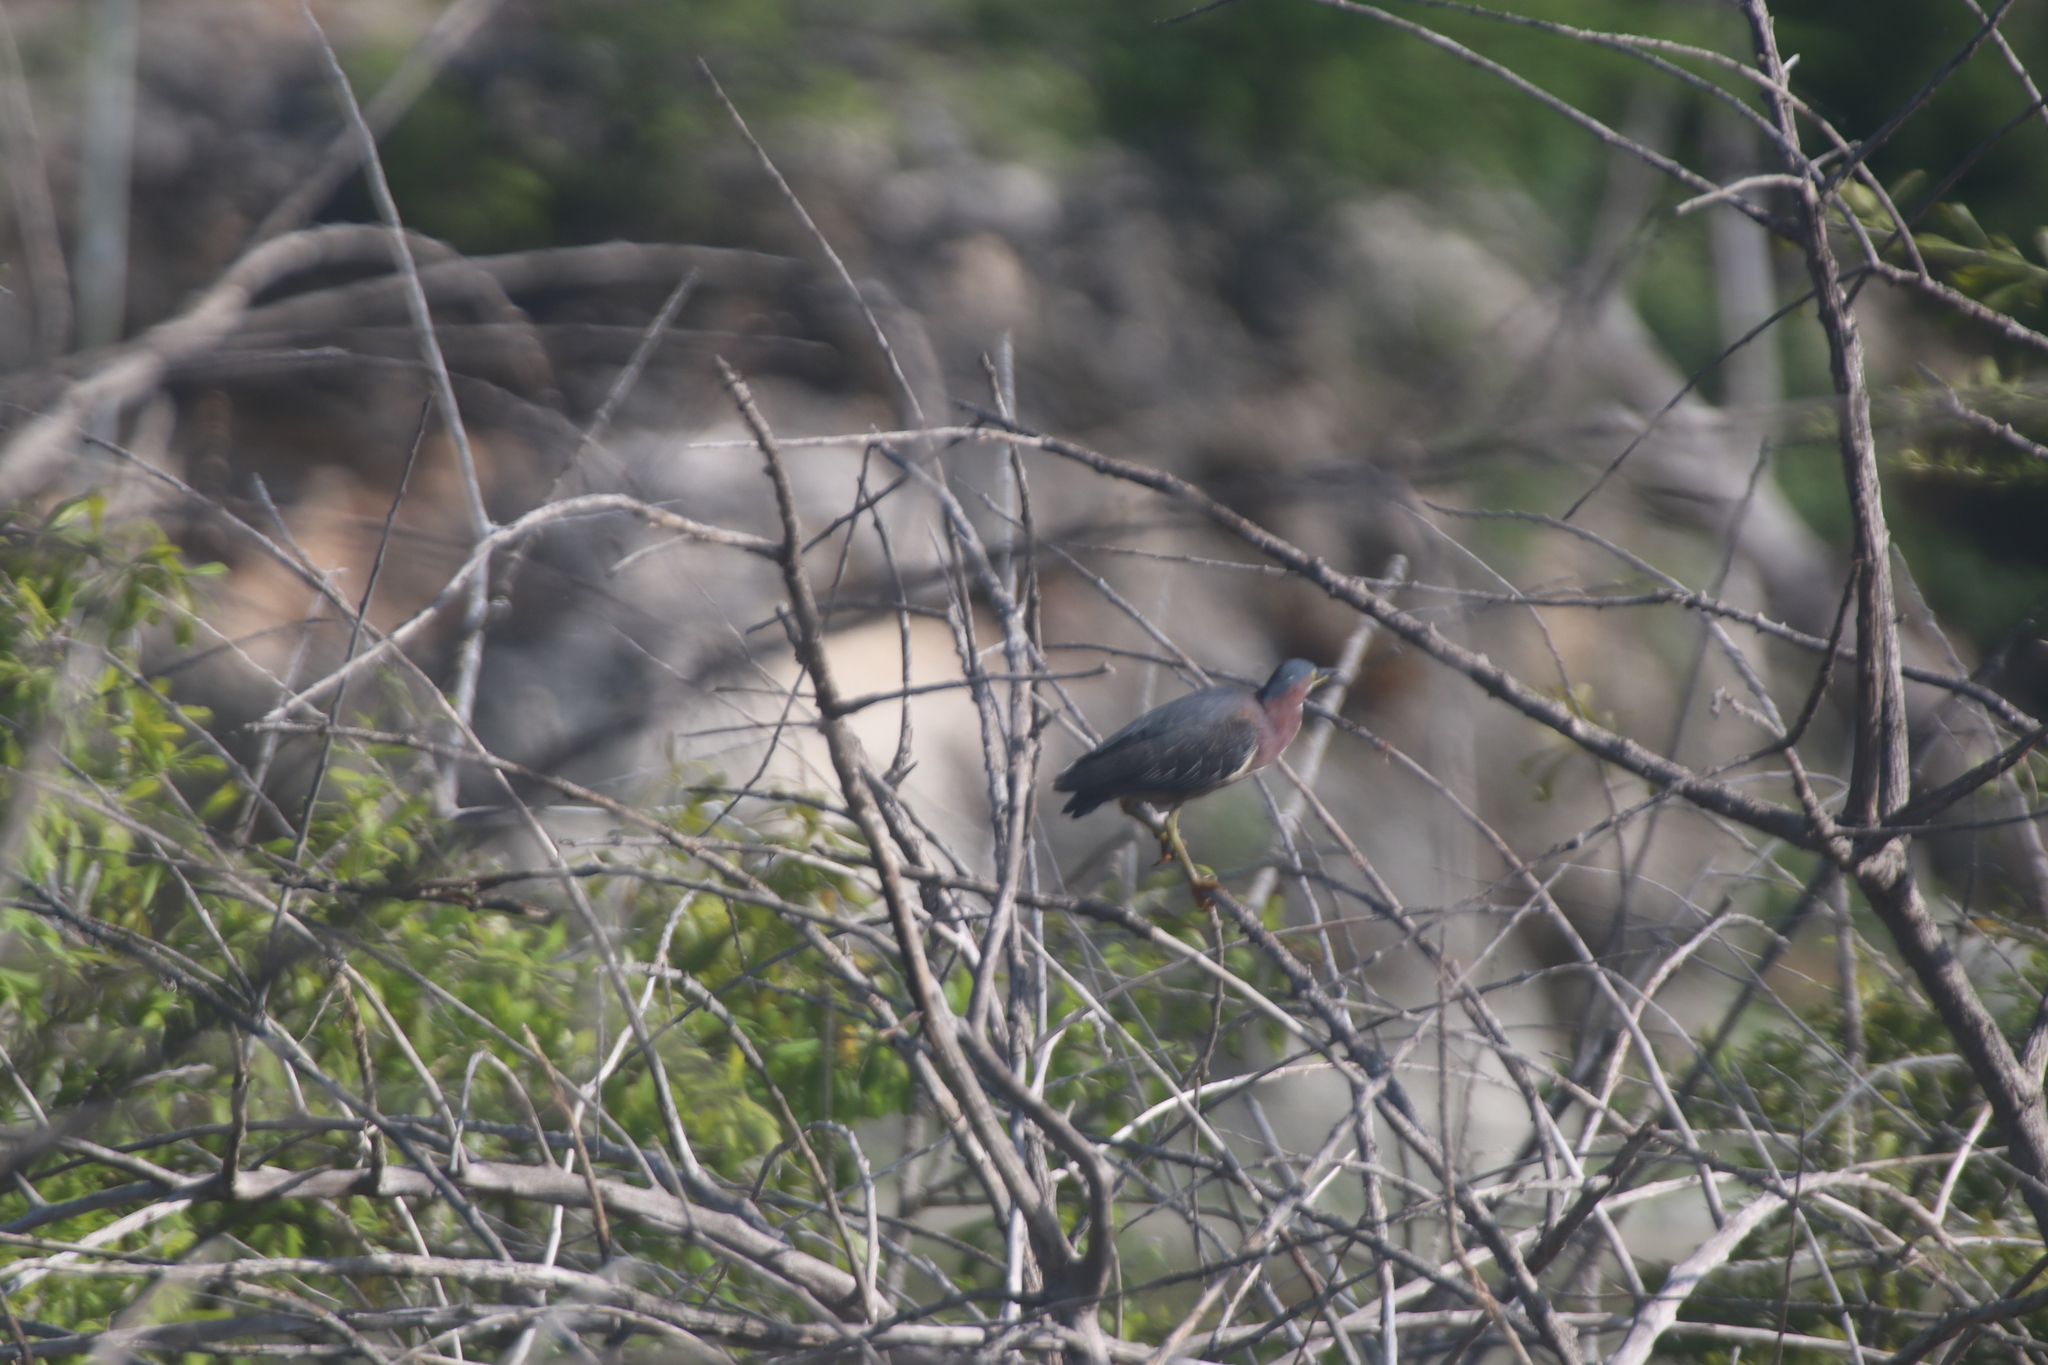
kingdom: Animalia
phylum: Chordata
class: Aves
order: Pelecaniformes
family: Ardeidae
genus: Butorides
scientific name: Butorides virescens
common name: Green heron
